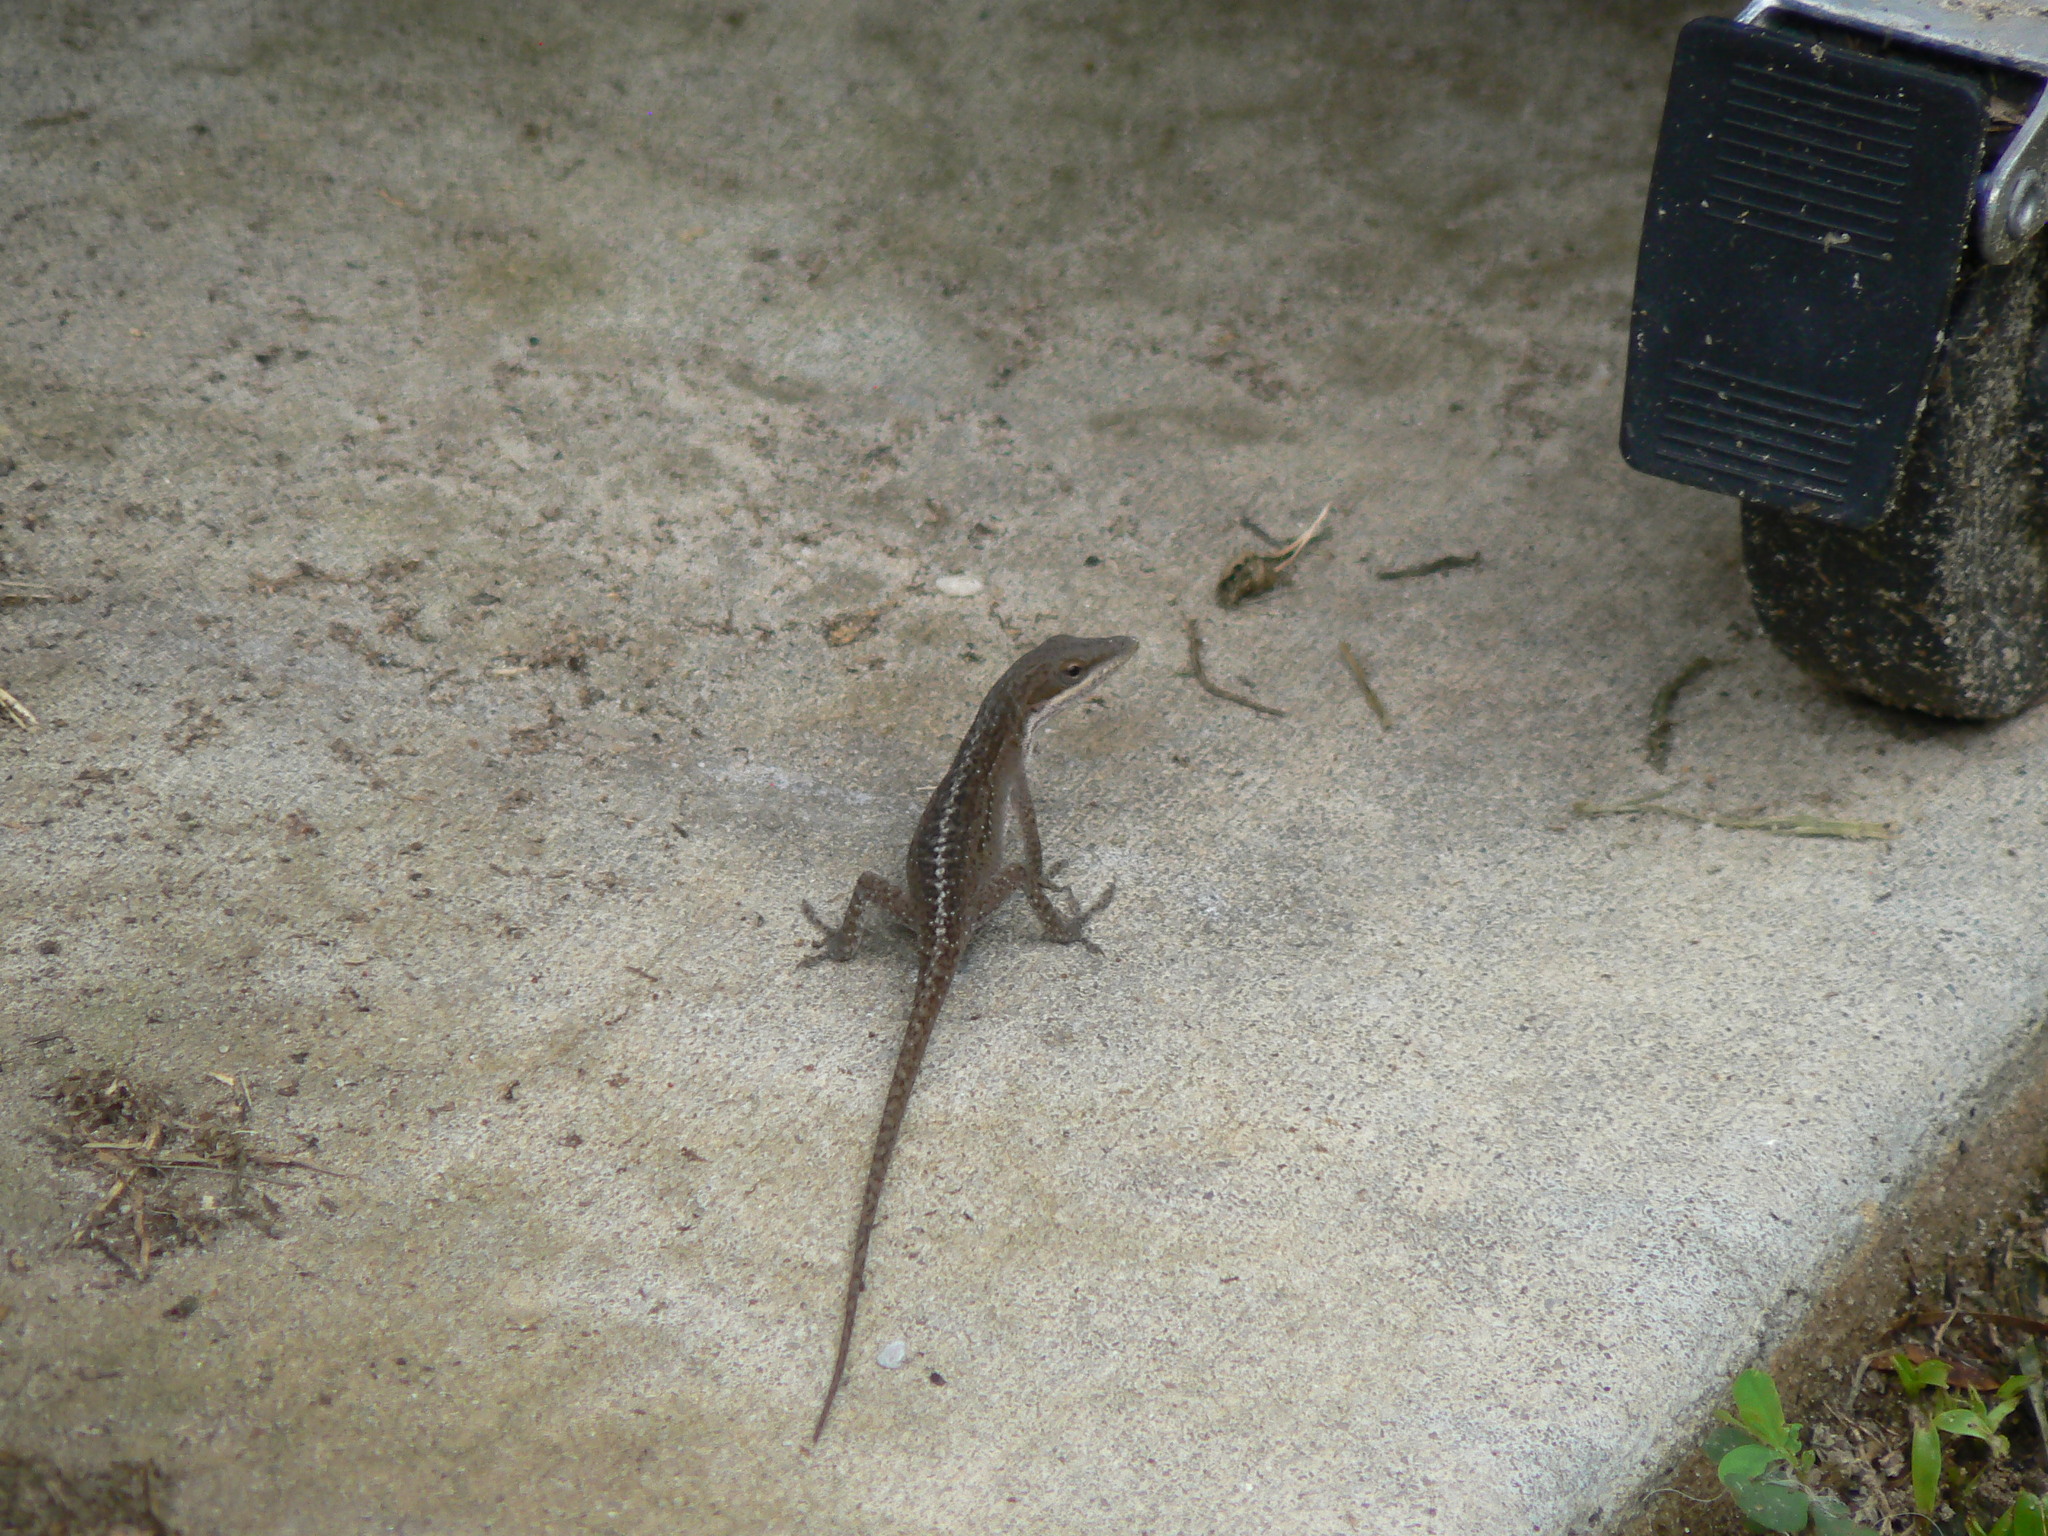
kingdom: Animalia
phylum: Chordata
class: Squamata
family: Dactyloidae
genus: Anolis
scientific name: Anolis carolinensis
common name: Green anole
